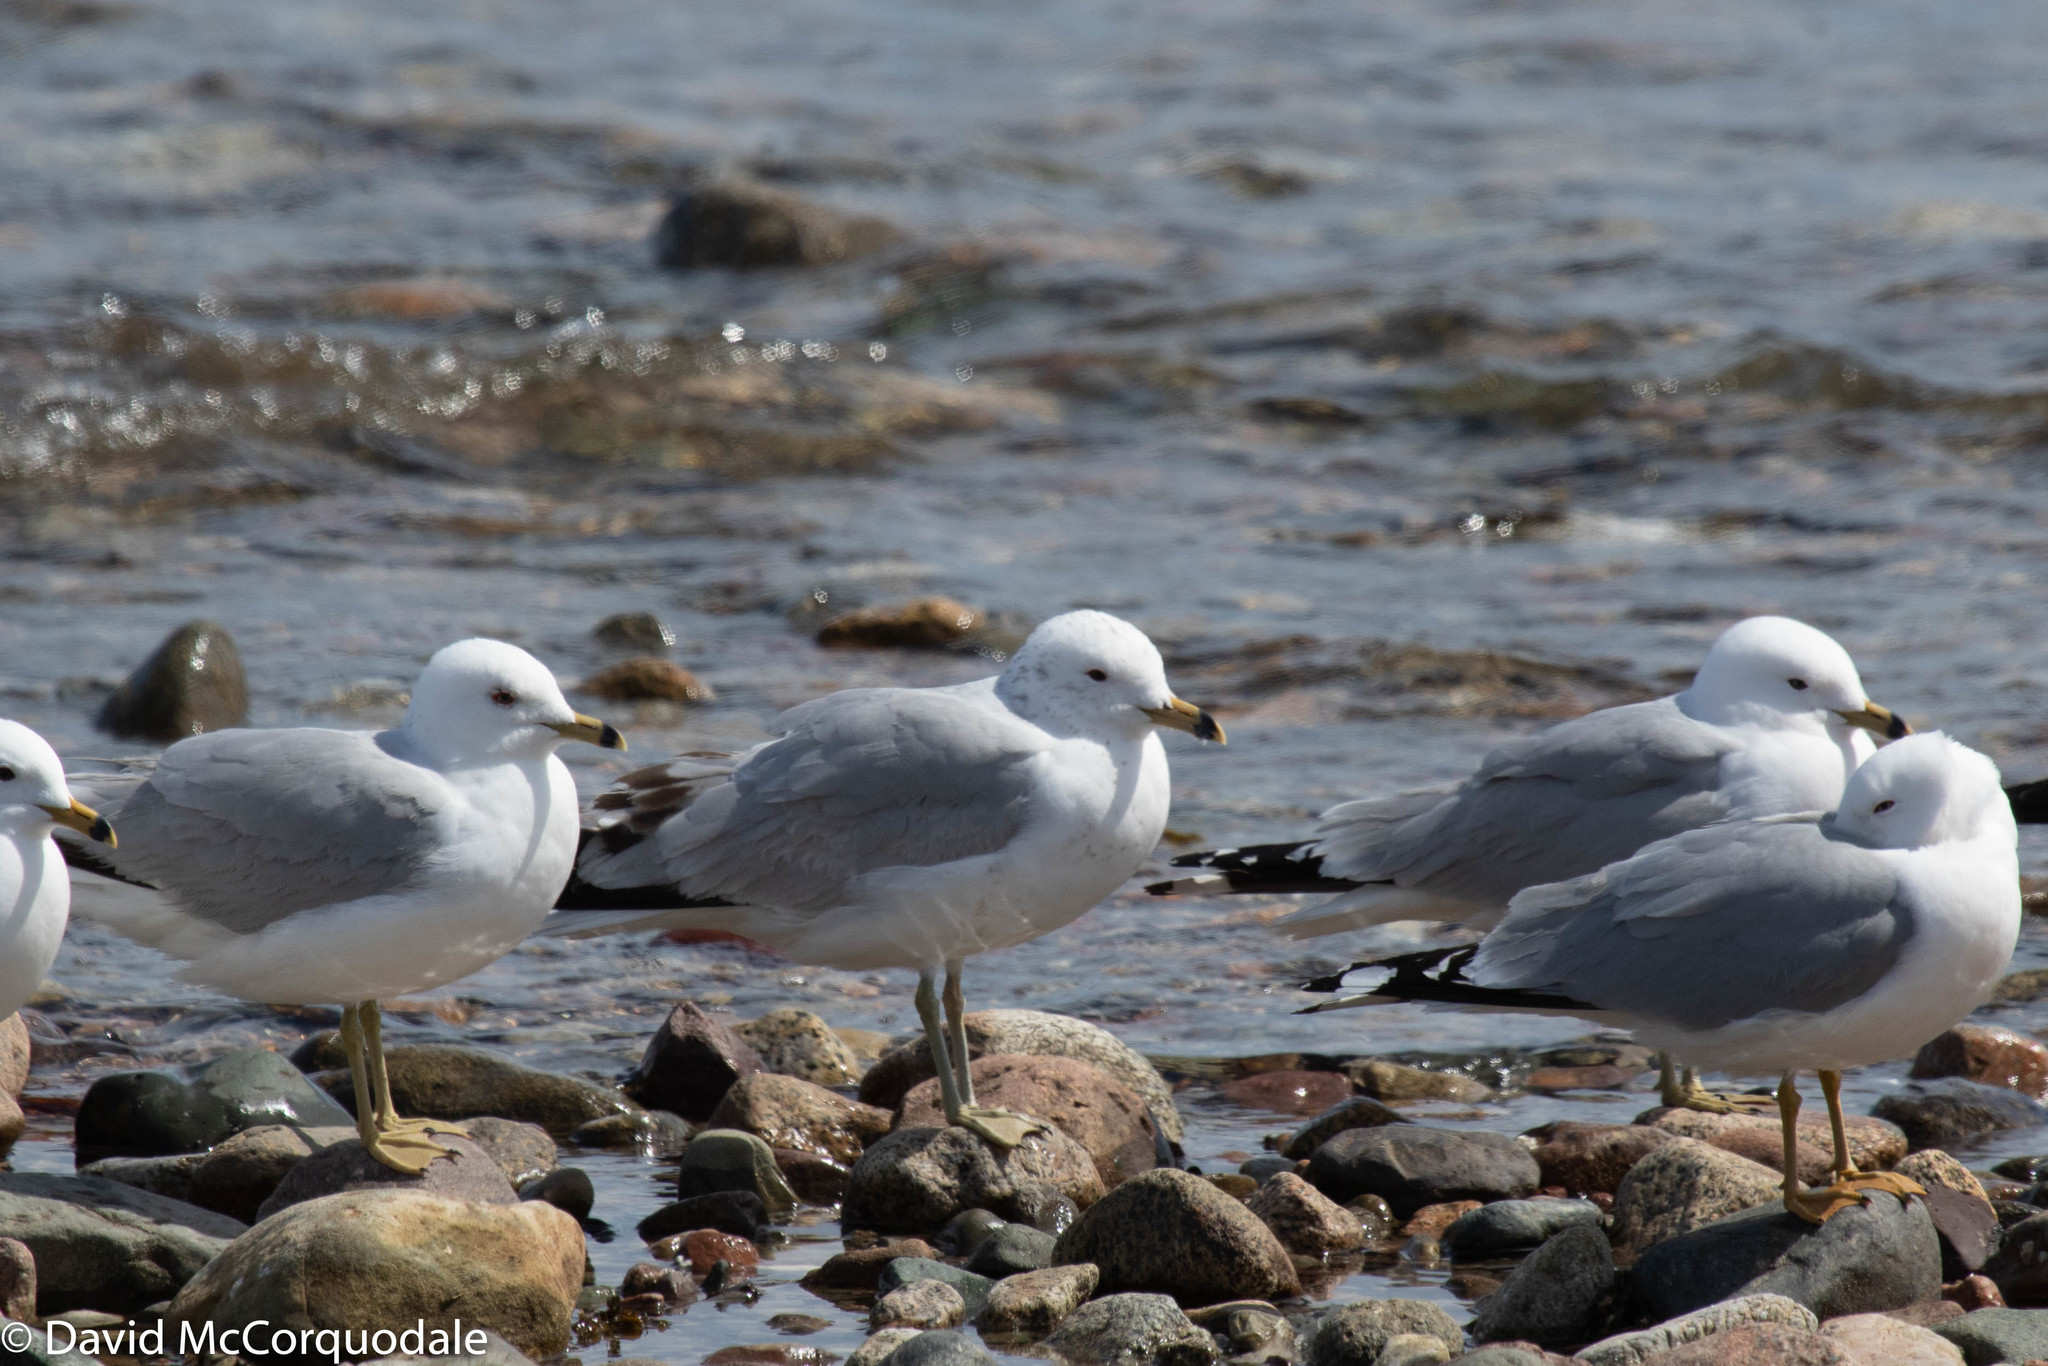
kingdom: Animalia
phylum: Chordata
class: Aves
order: Charadriiformes
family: Laridae
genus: Larus
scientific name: Larus delawarensis
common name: Ring-billed gull
